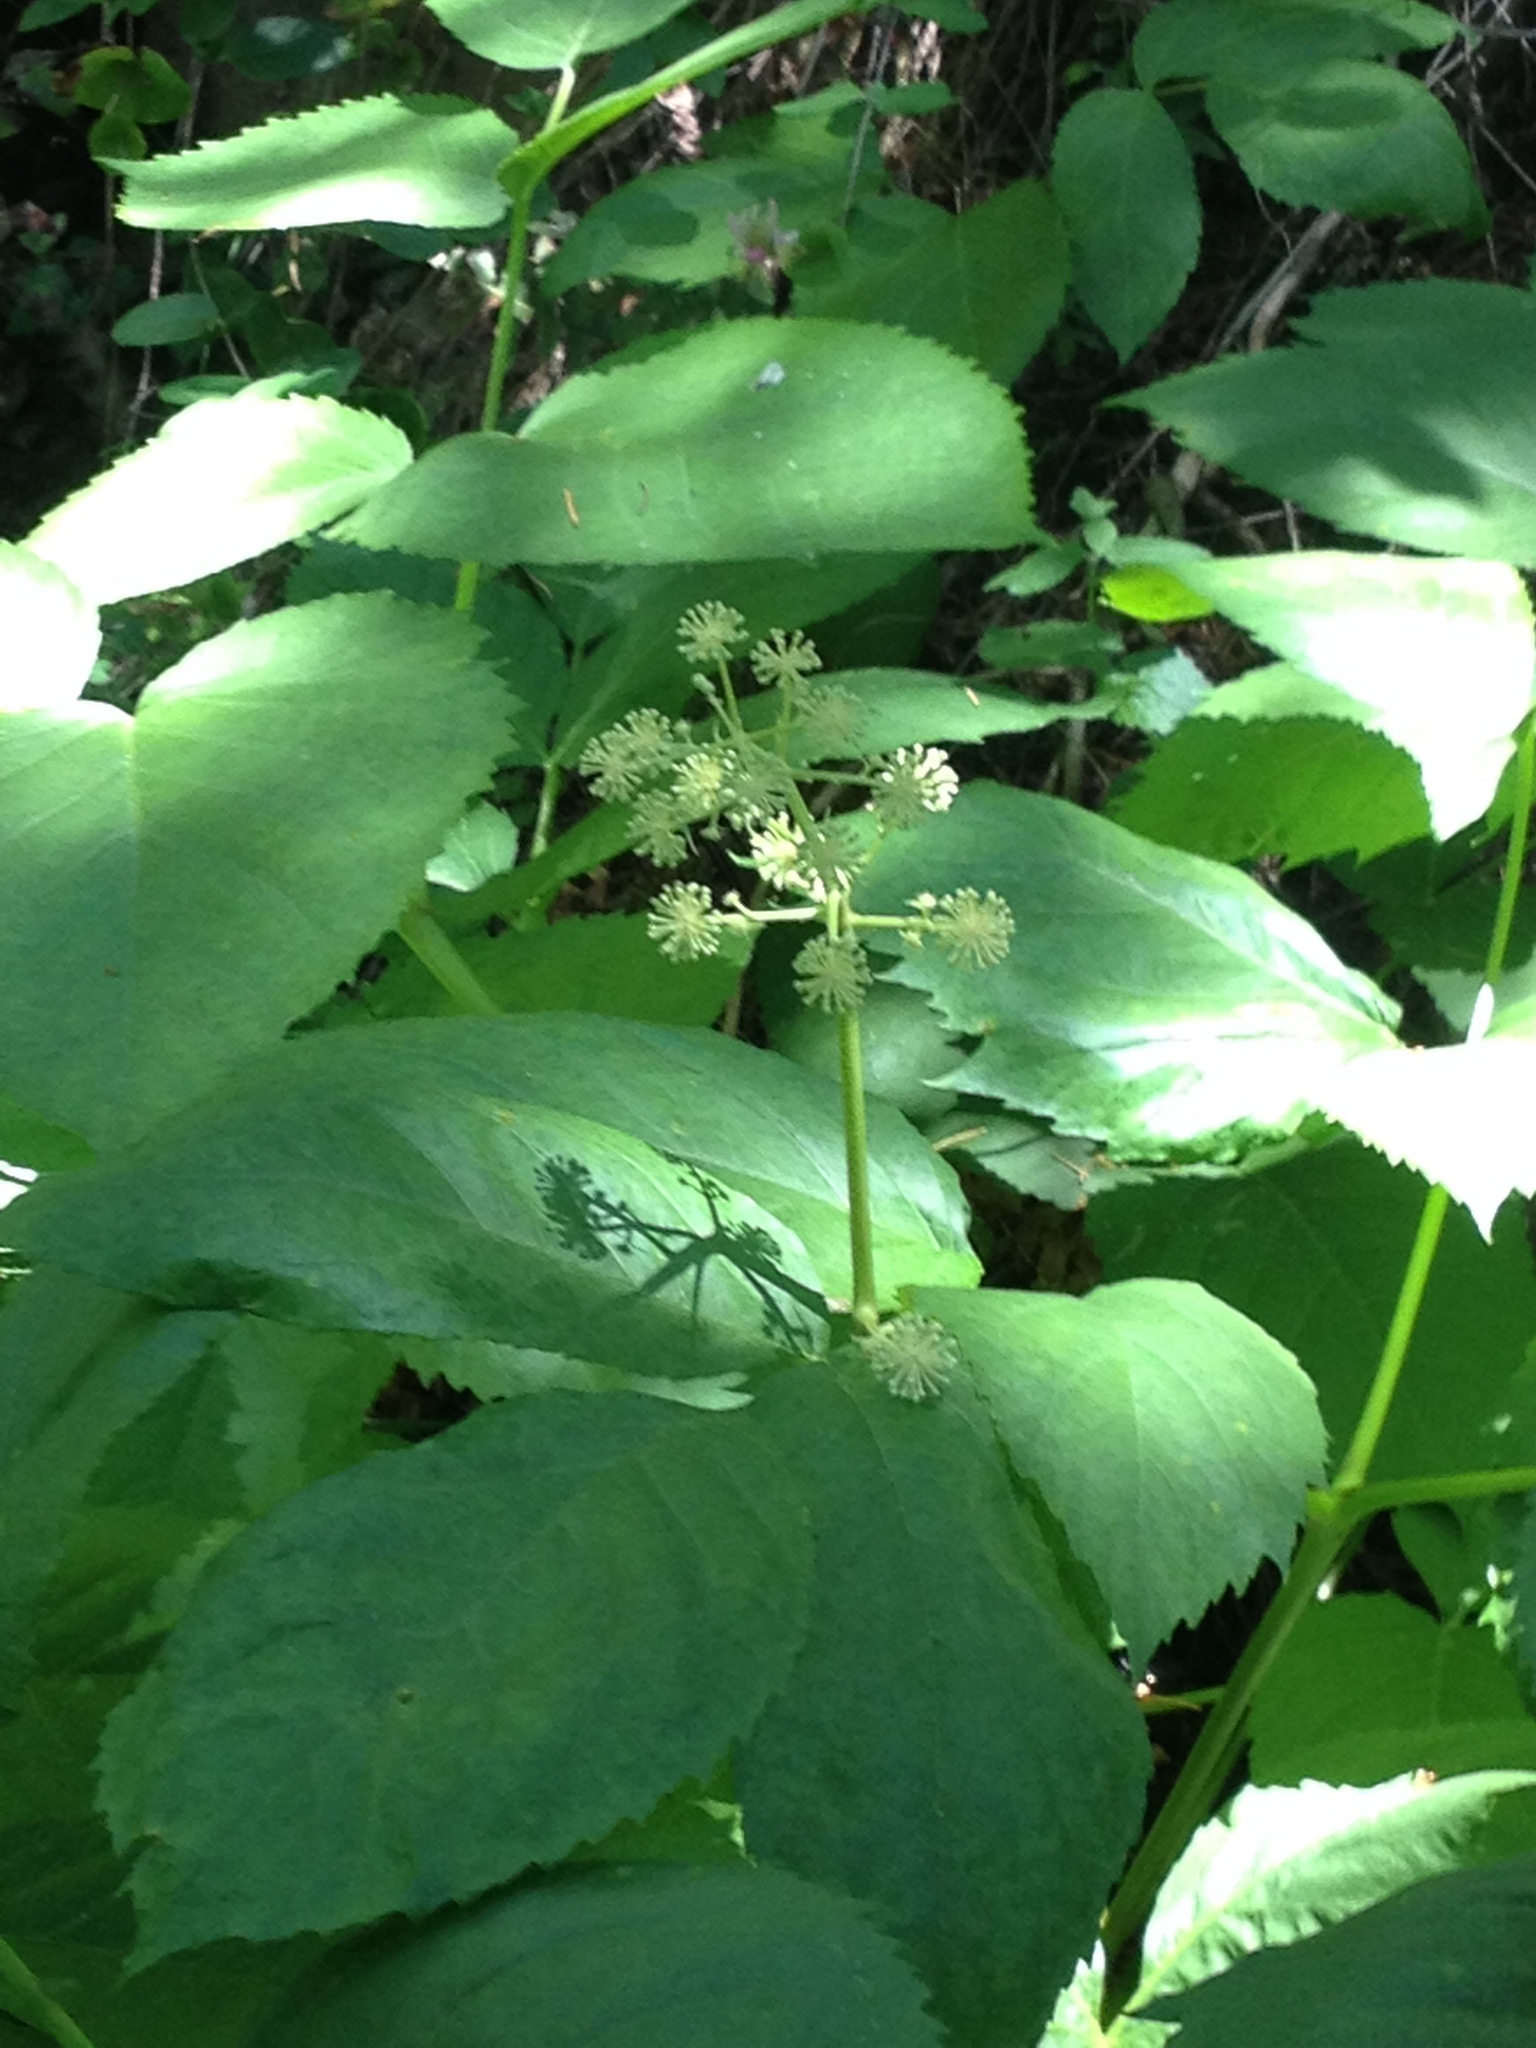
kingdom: Plantae
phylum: Tracheophyta
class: Magnoliopsida
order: Apiales
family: Araliaceae
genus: Aralia
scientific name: Aralia californica
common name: California-ginseng
